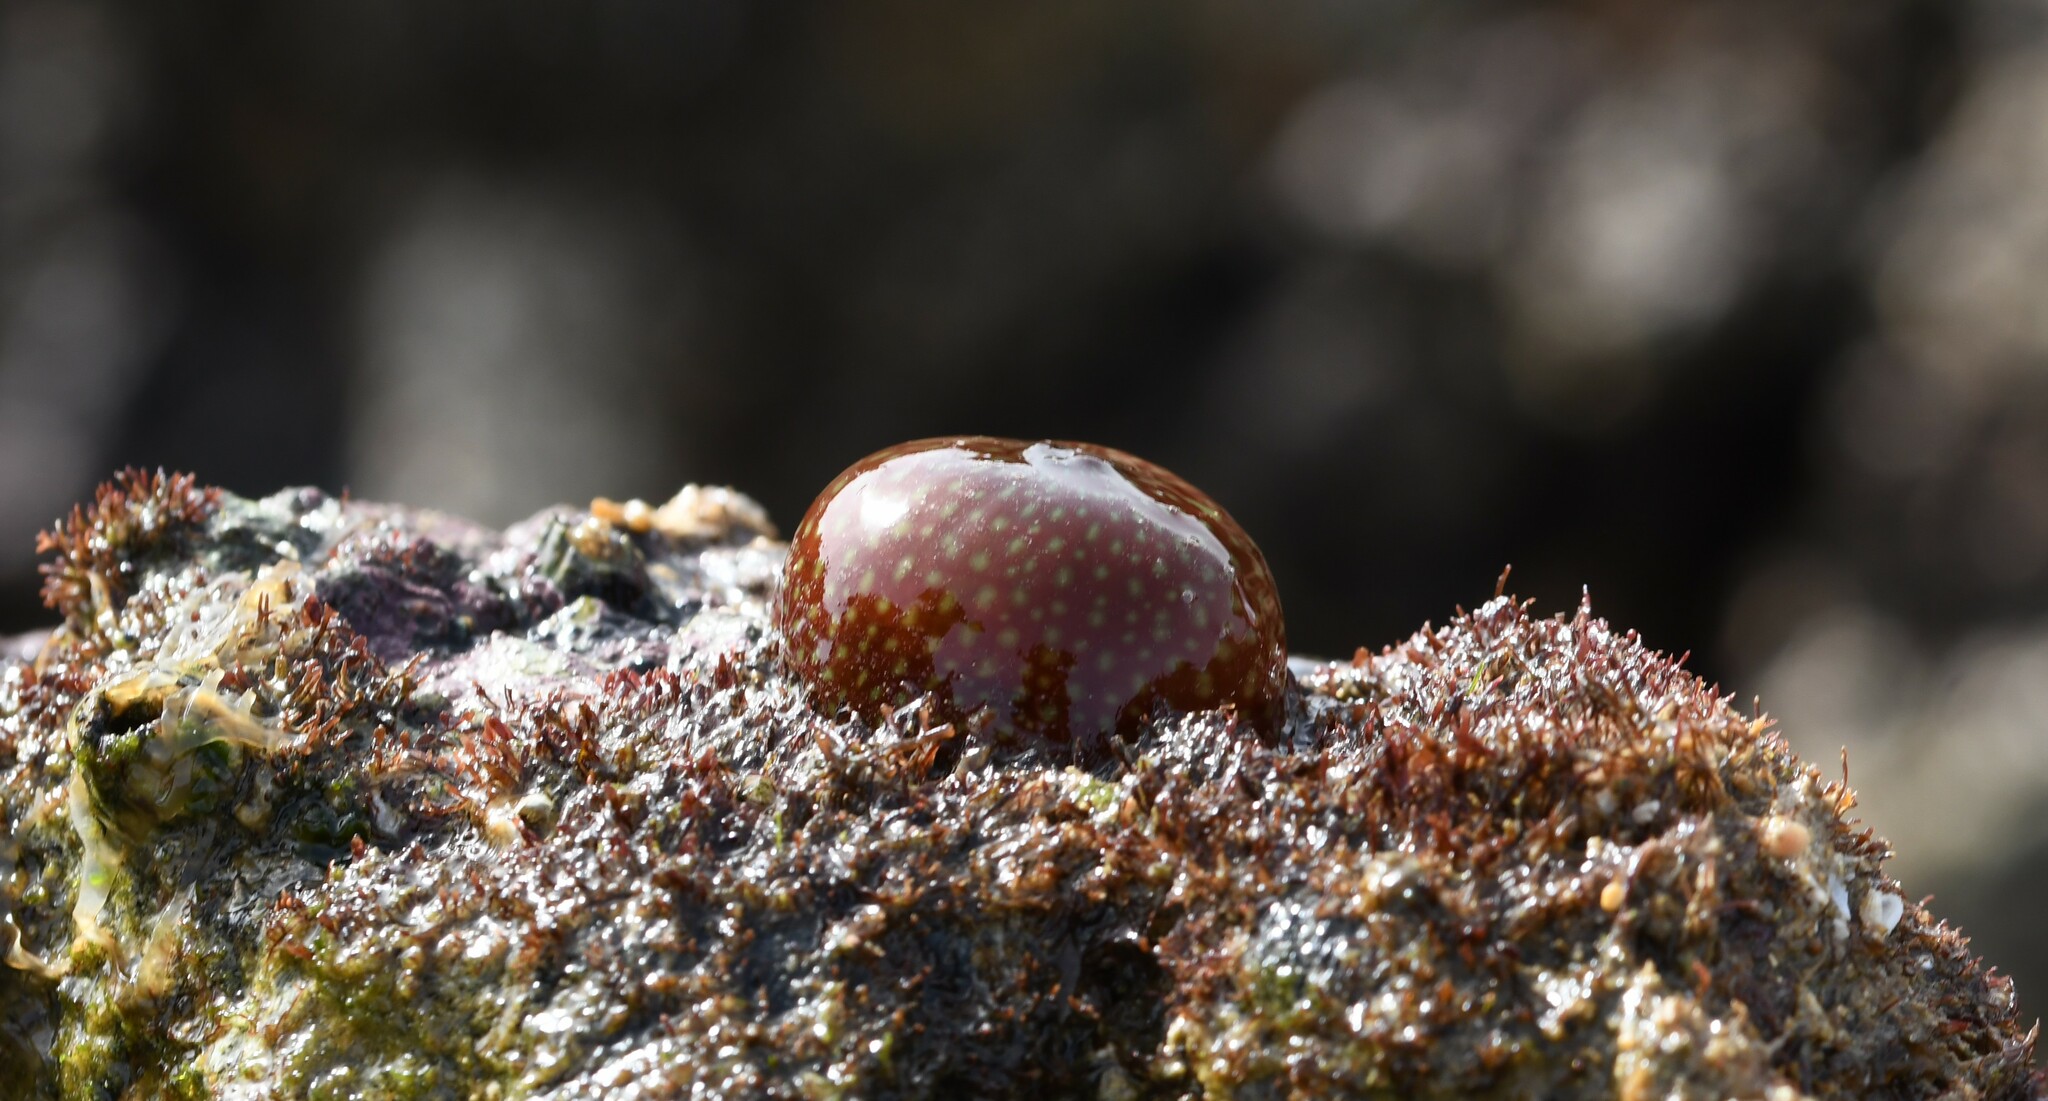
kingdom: Animalia
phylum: Cnidaria
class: Anthozoa
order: Actiniaria
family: Actiniidae
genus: Actinia
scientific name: Actinia fragacea
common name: Strawberry anemone
